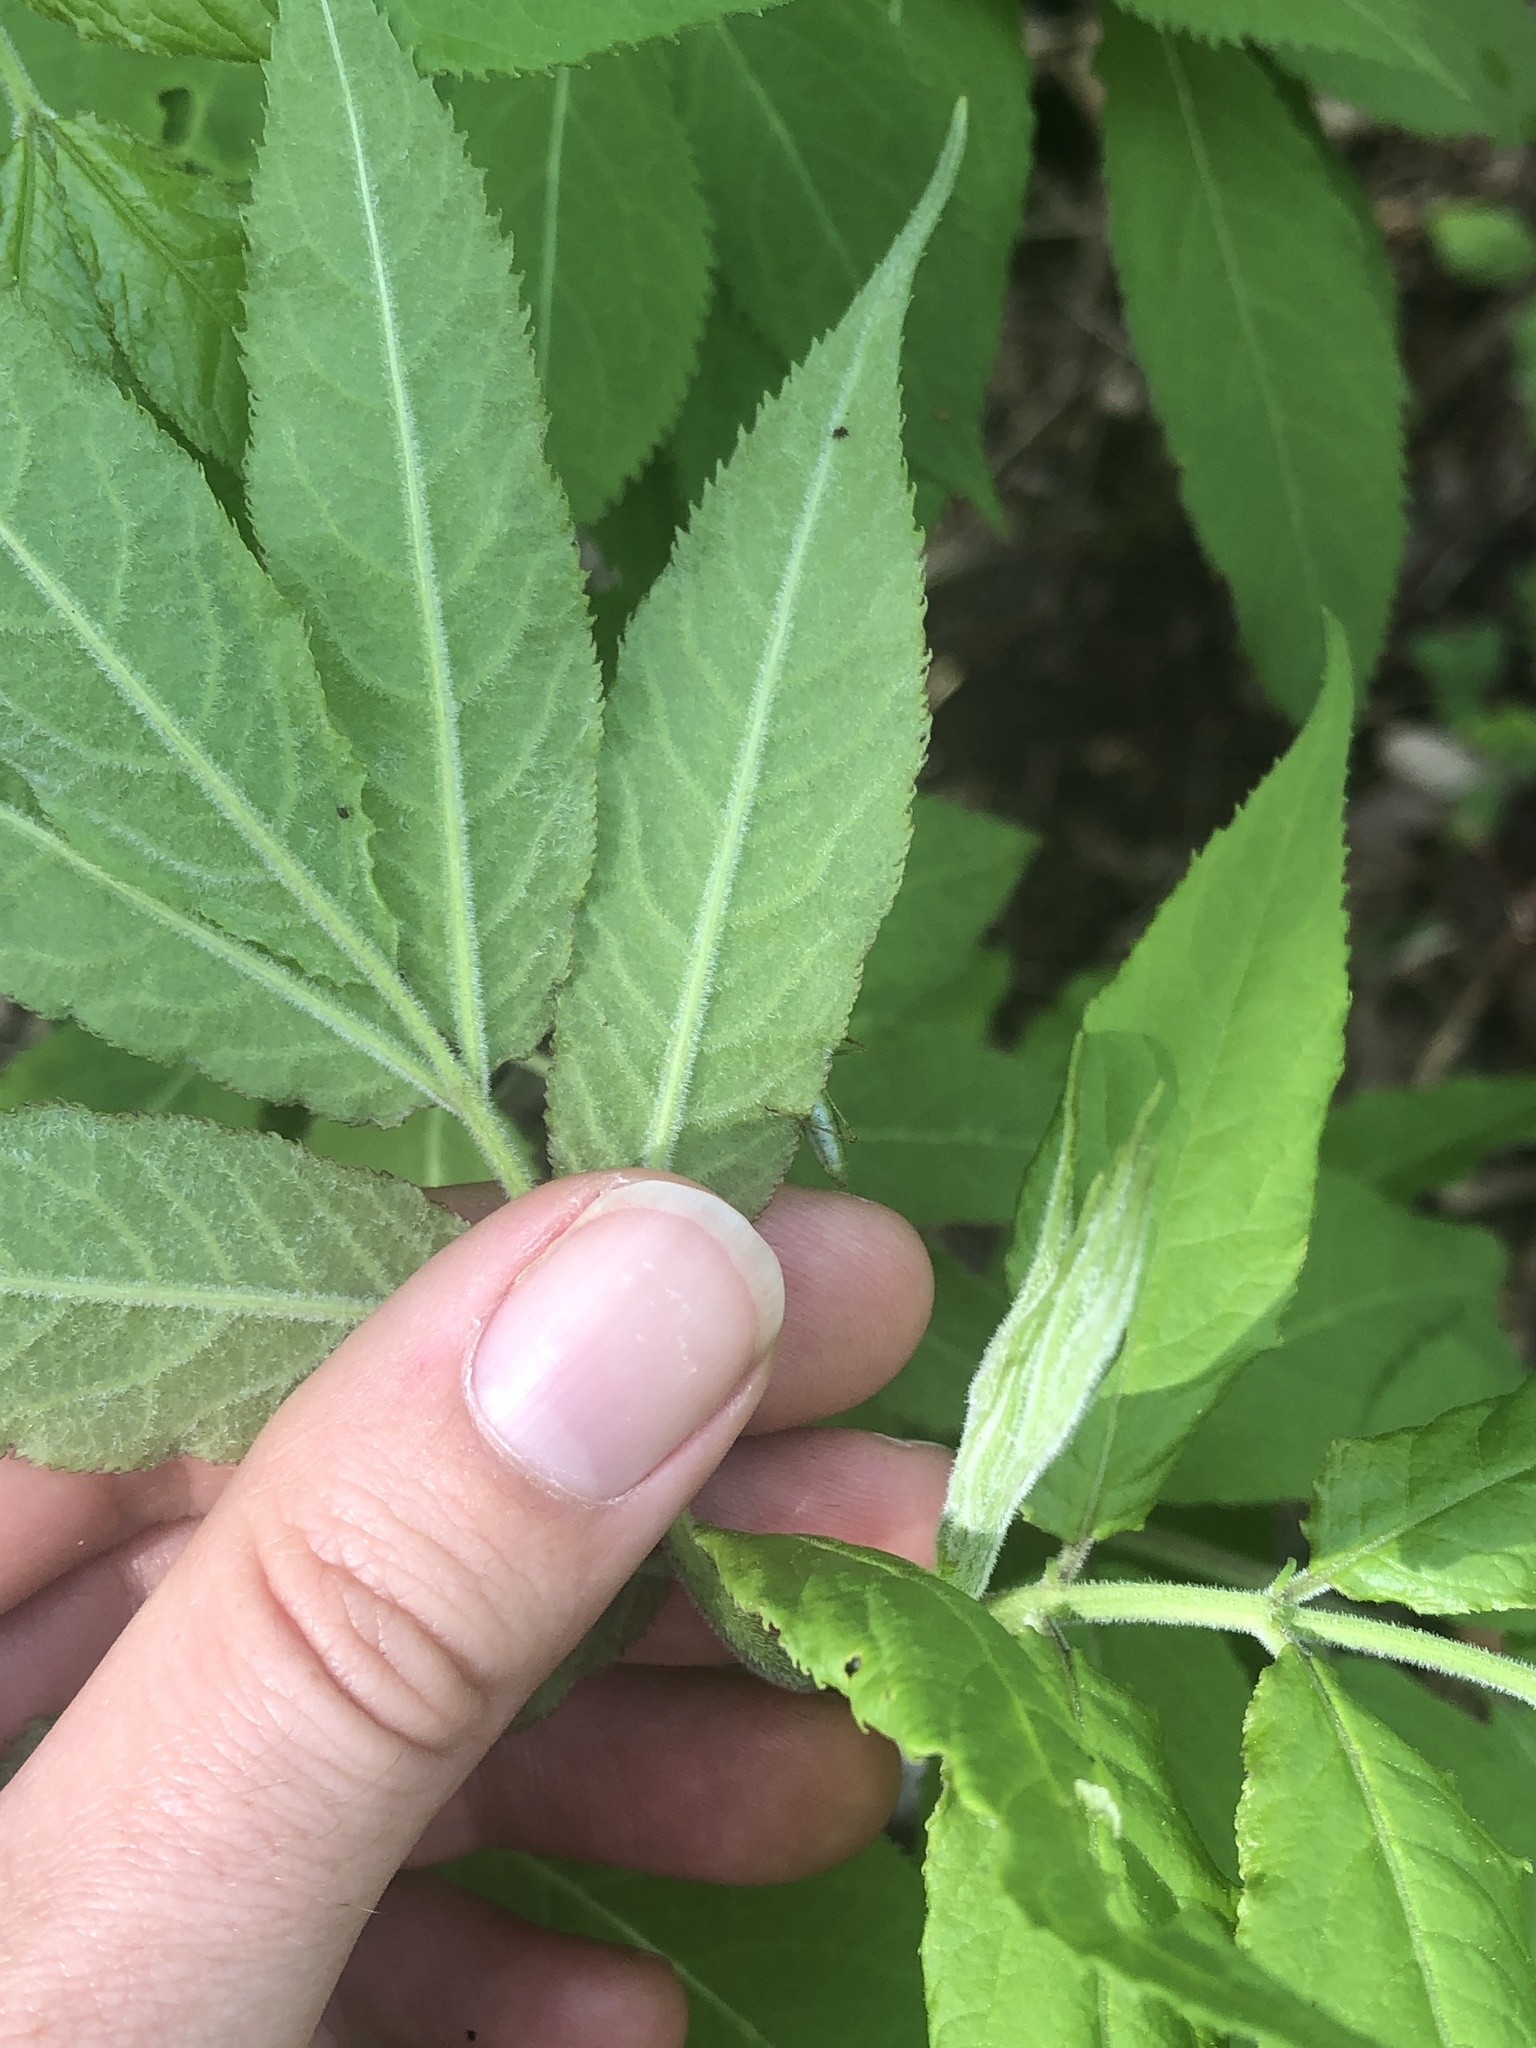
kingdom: Plantae
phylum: Tracheophyta
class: Magnoliopsida
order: Dipsacales
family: Viburnaceae
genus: Sambucus
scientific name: Sambucus racemosa
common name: Red-berried elder
